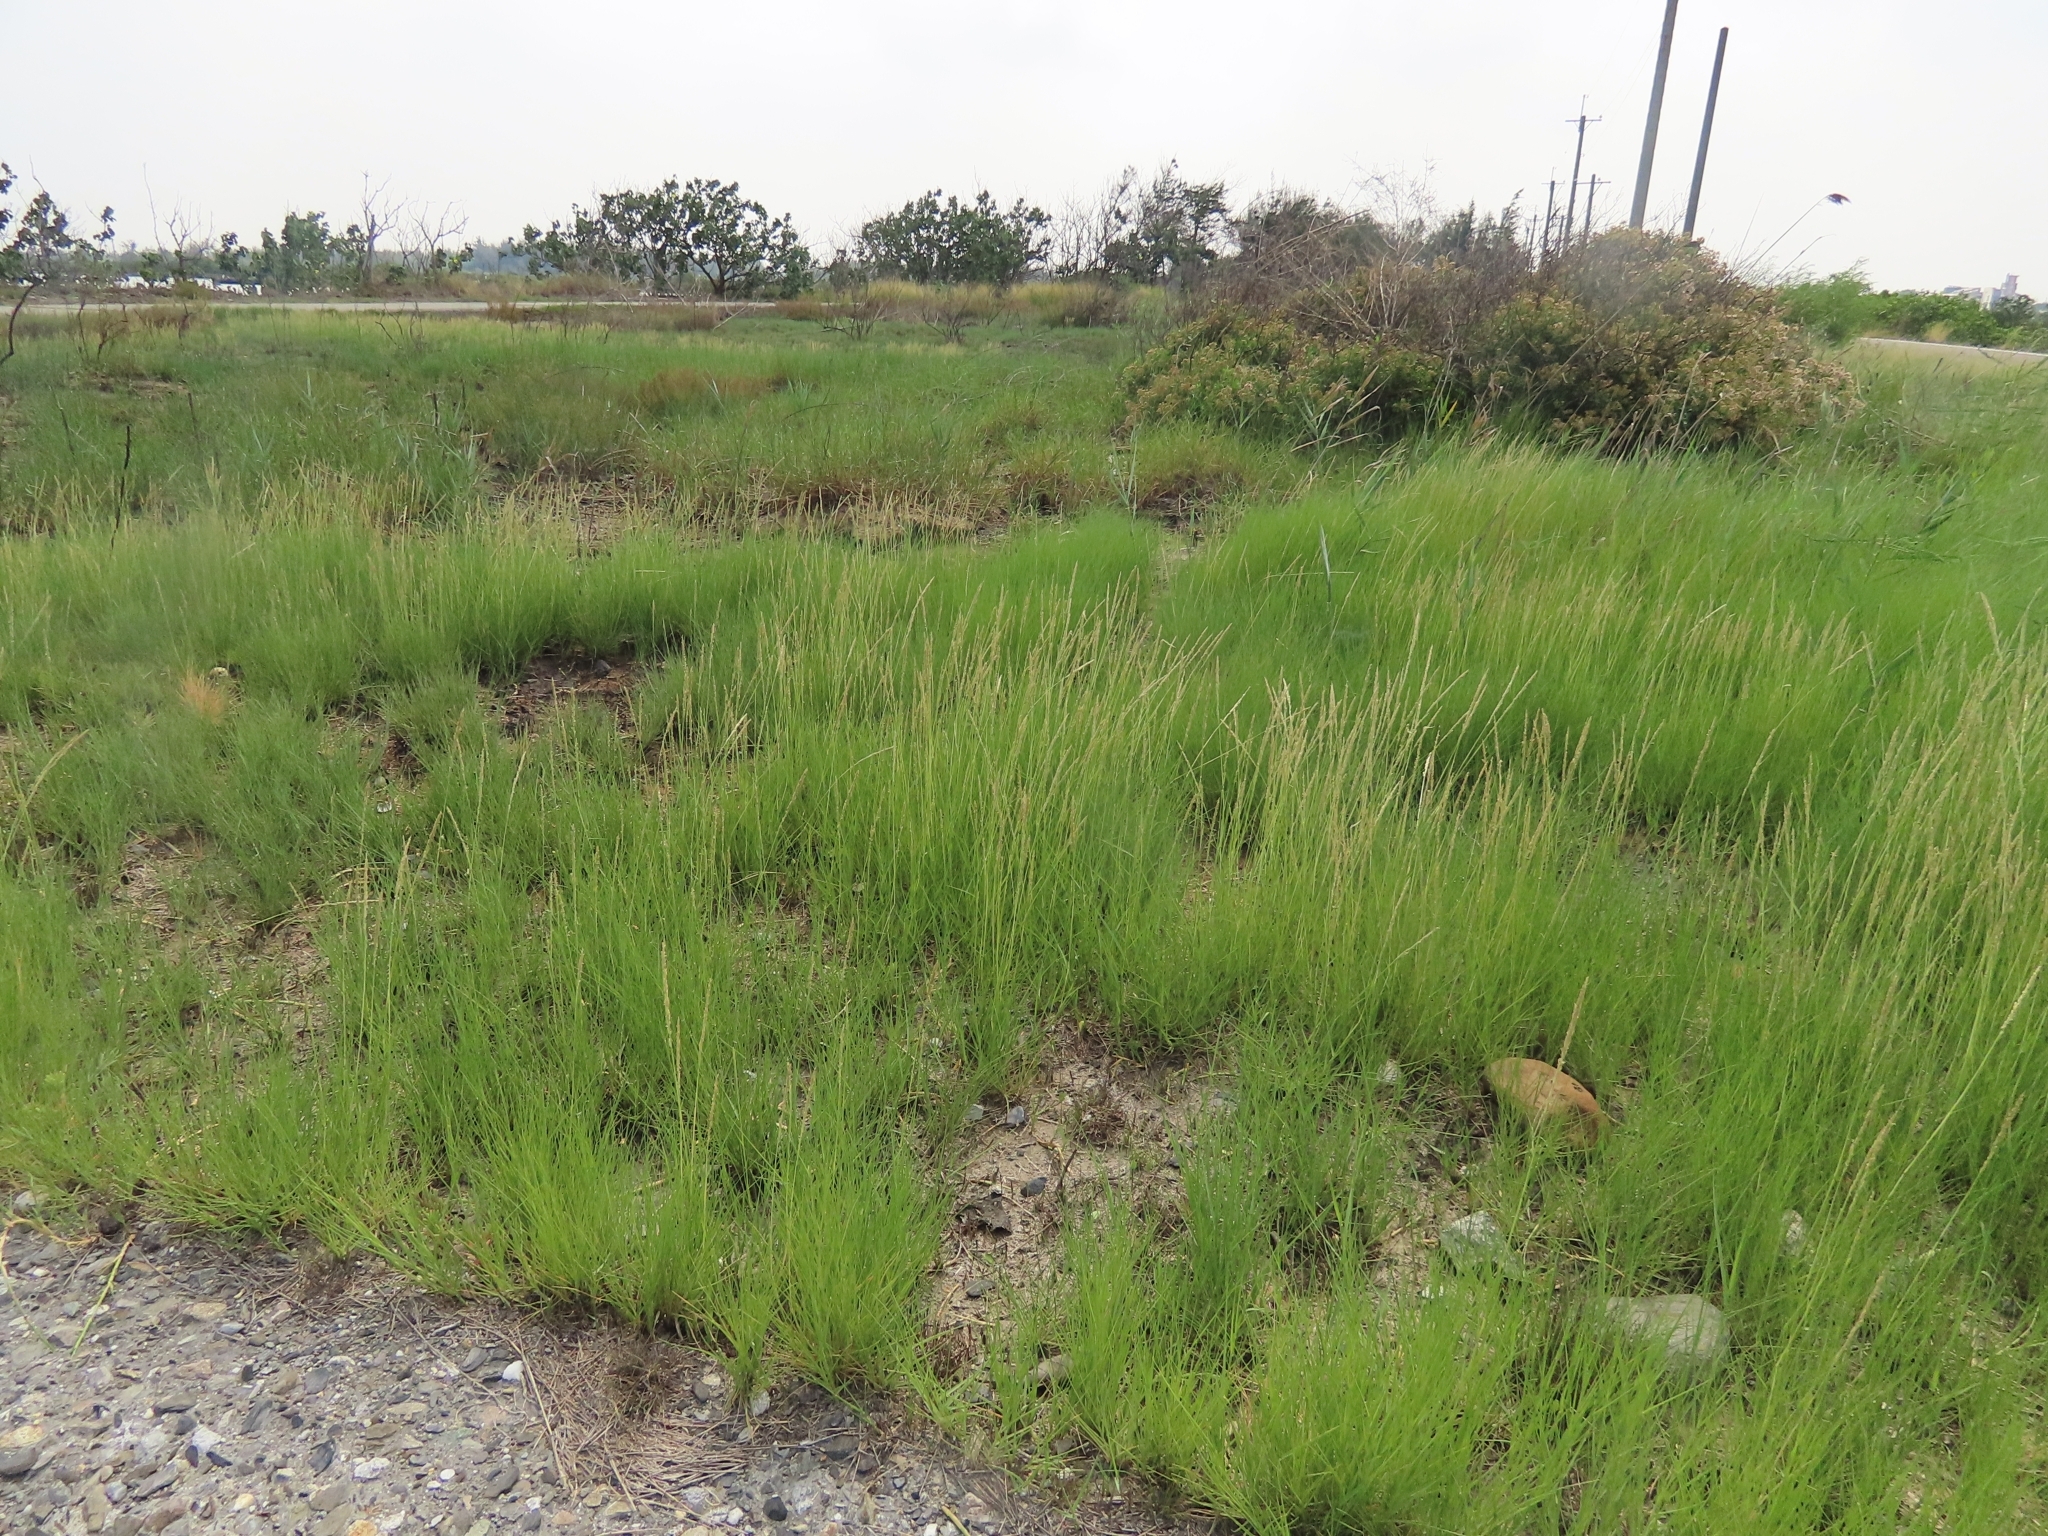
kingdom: Plantae
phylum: Tracheophyta
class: Liliopsida
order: Poales
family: Poaceae
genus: Sporobolus
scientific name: Sporobolus virginicus
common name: Beach dropseed
